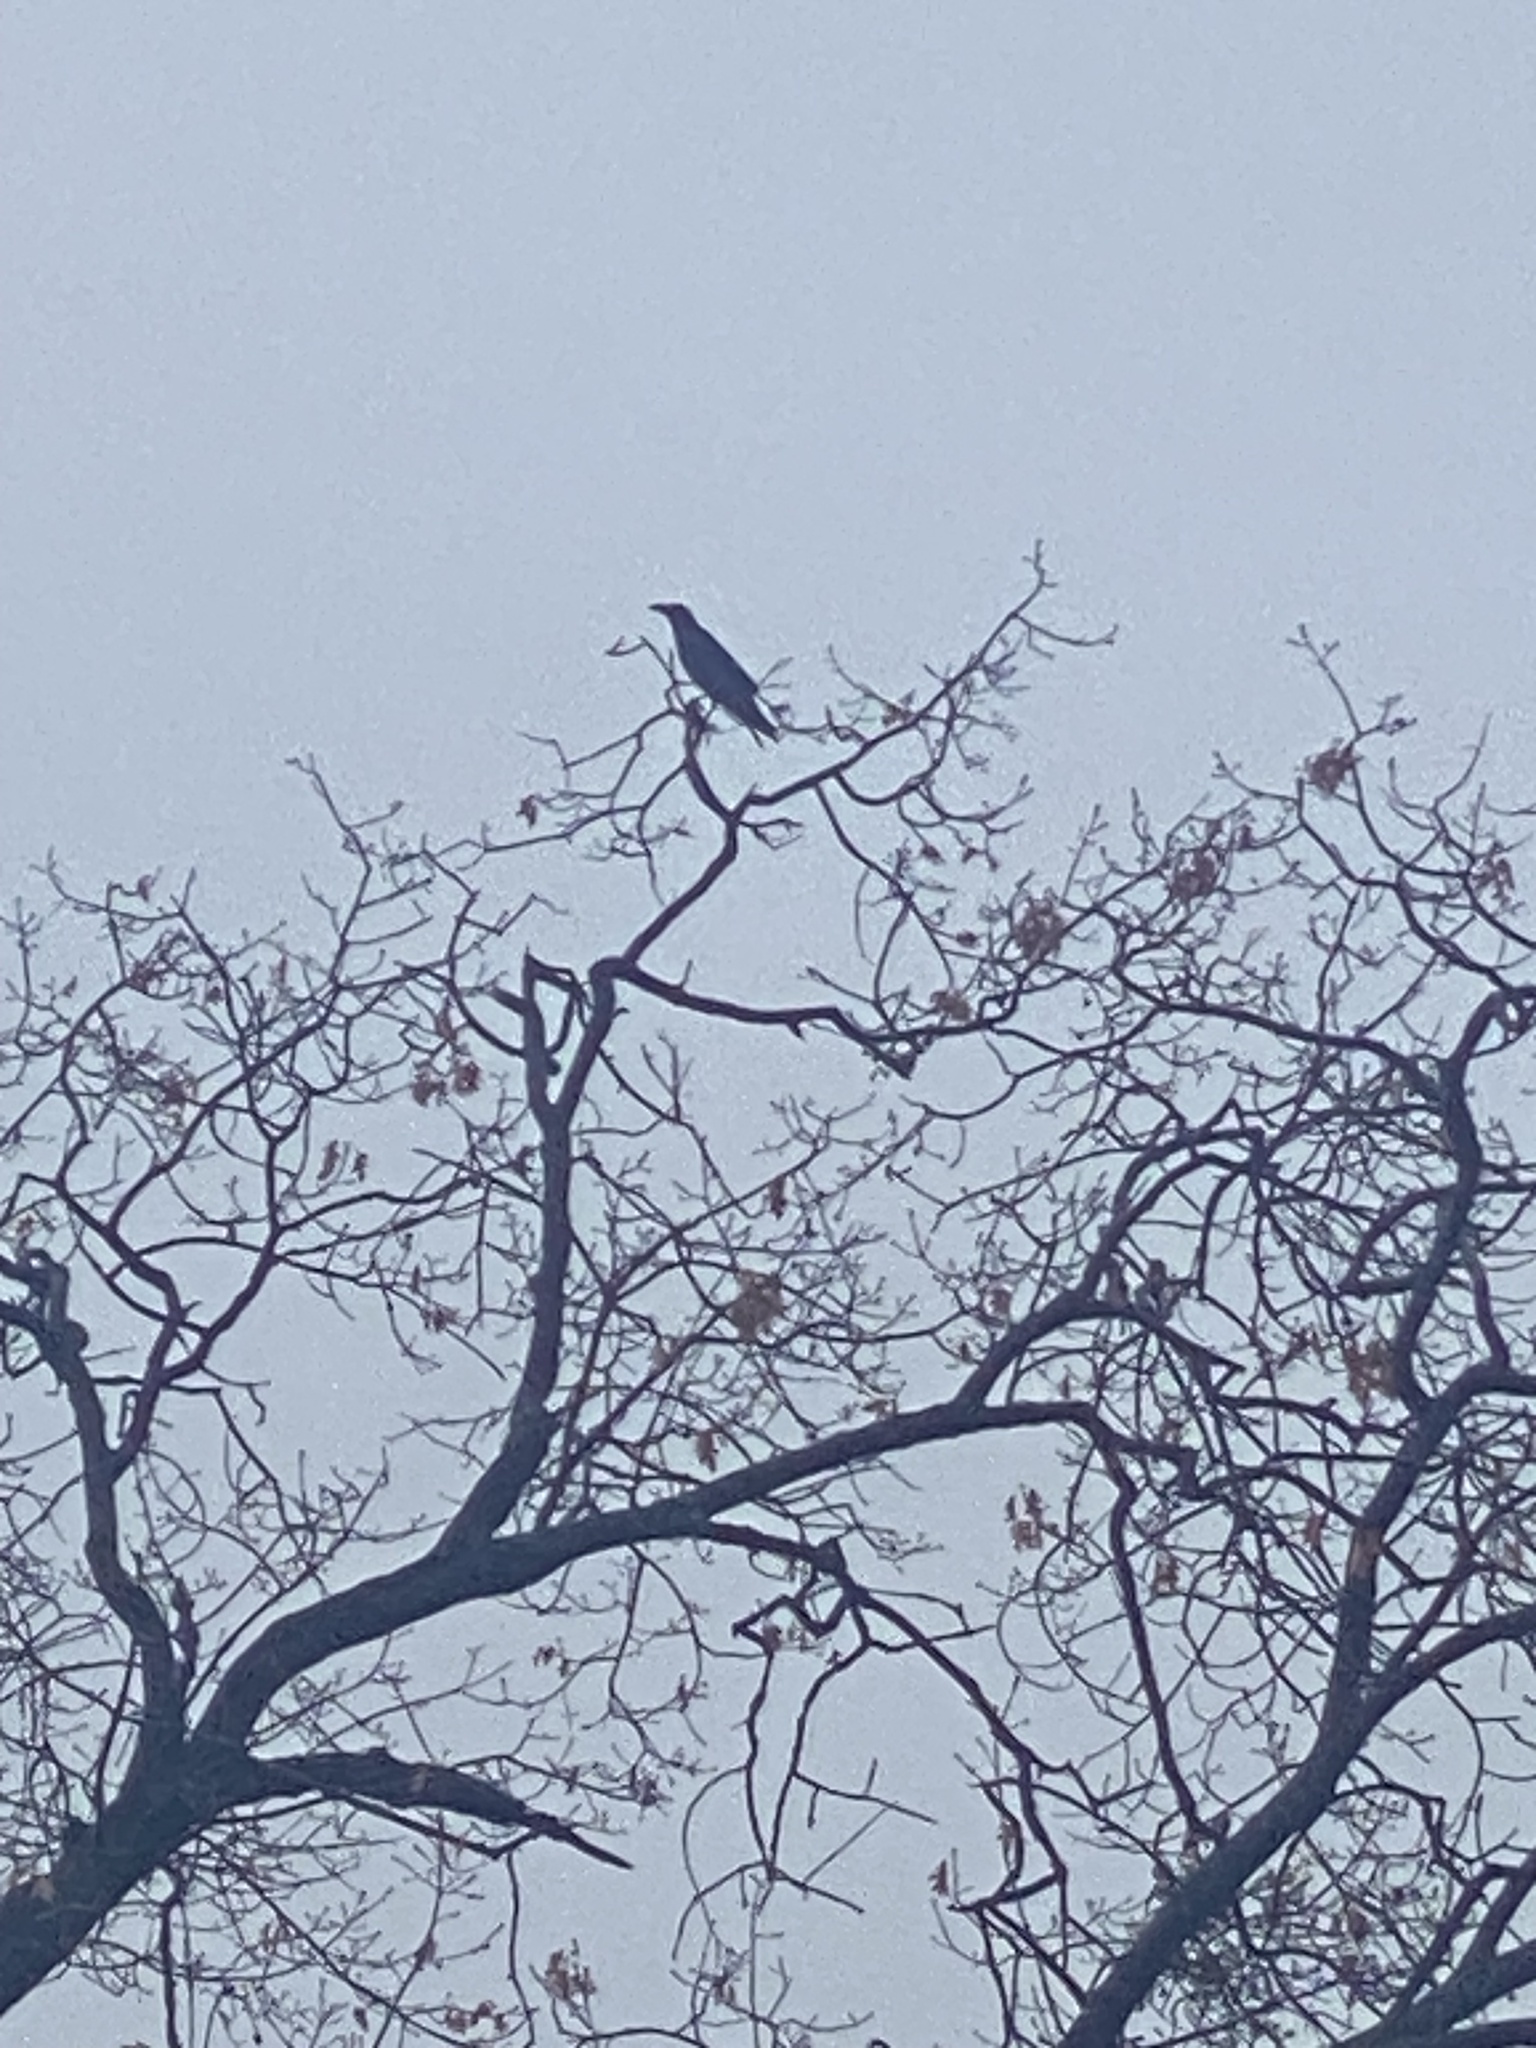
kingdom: Animalia
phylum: Chordata
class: Aves
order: Passeriformes
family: Corvidae
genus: Corvus
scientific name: Corvus corax
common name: Common raven
